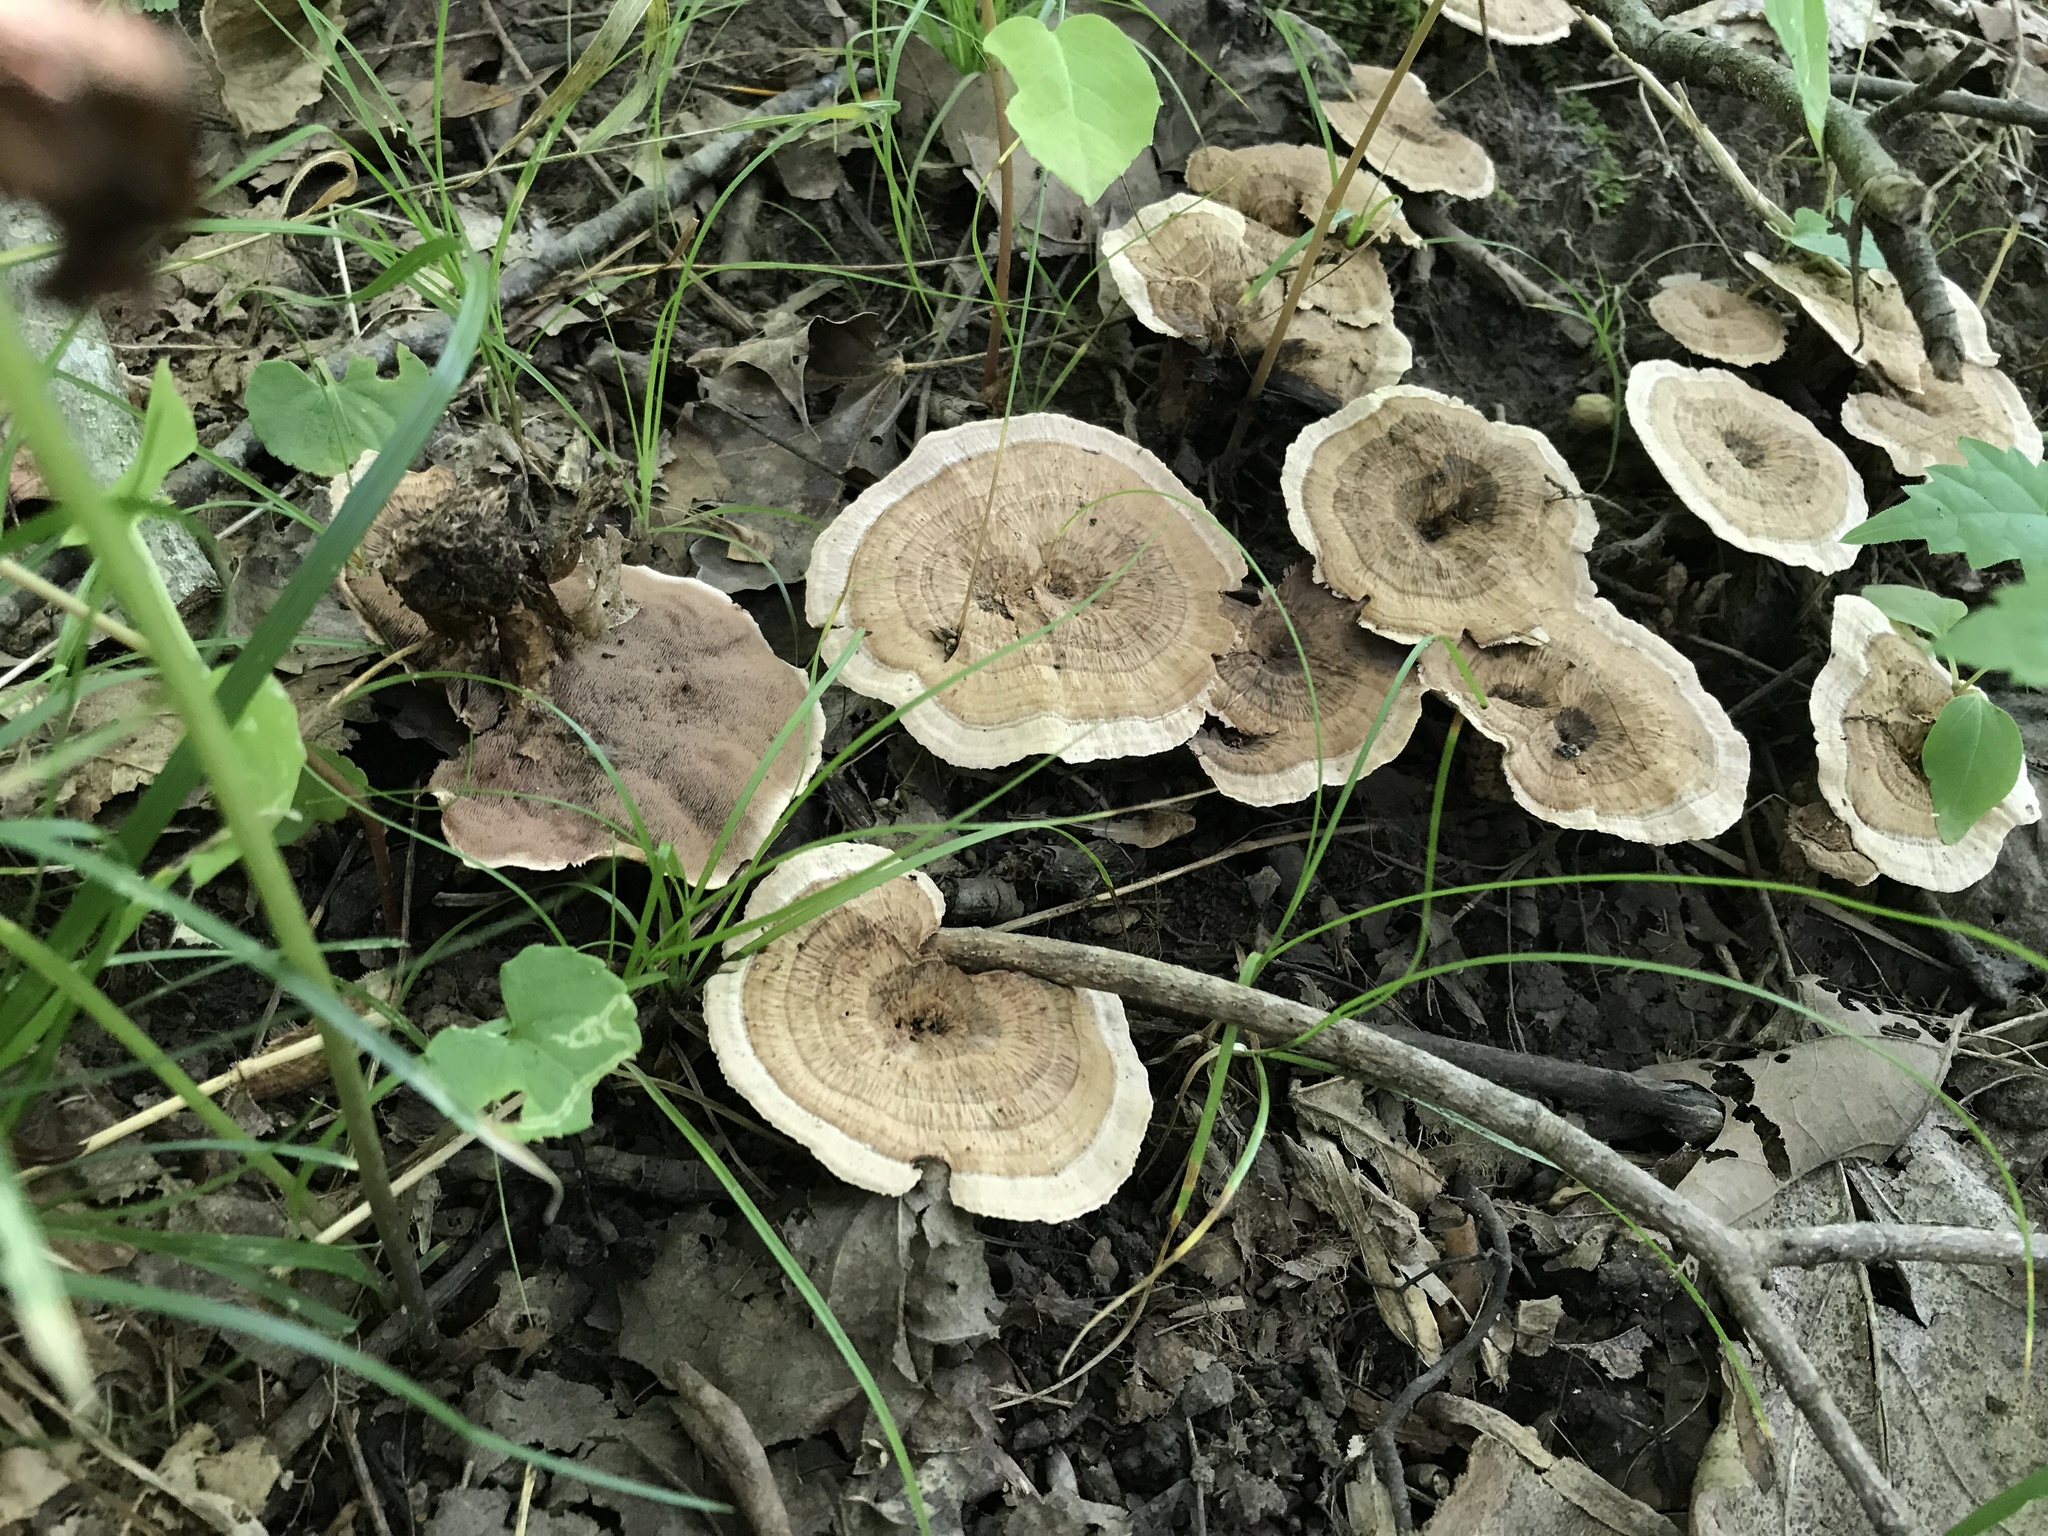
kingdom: Fungi
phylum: Basidiomycota
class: Agaricomycetes
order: Thelephorales
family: Bankeraceae
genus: Hydnellum
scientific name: Hydnellum spongiosipes
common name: Velvet tooth
